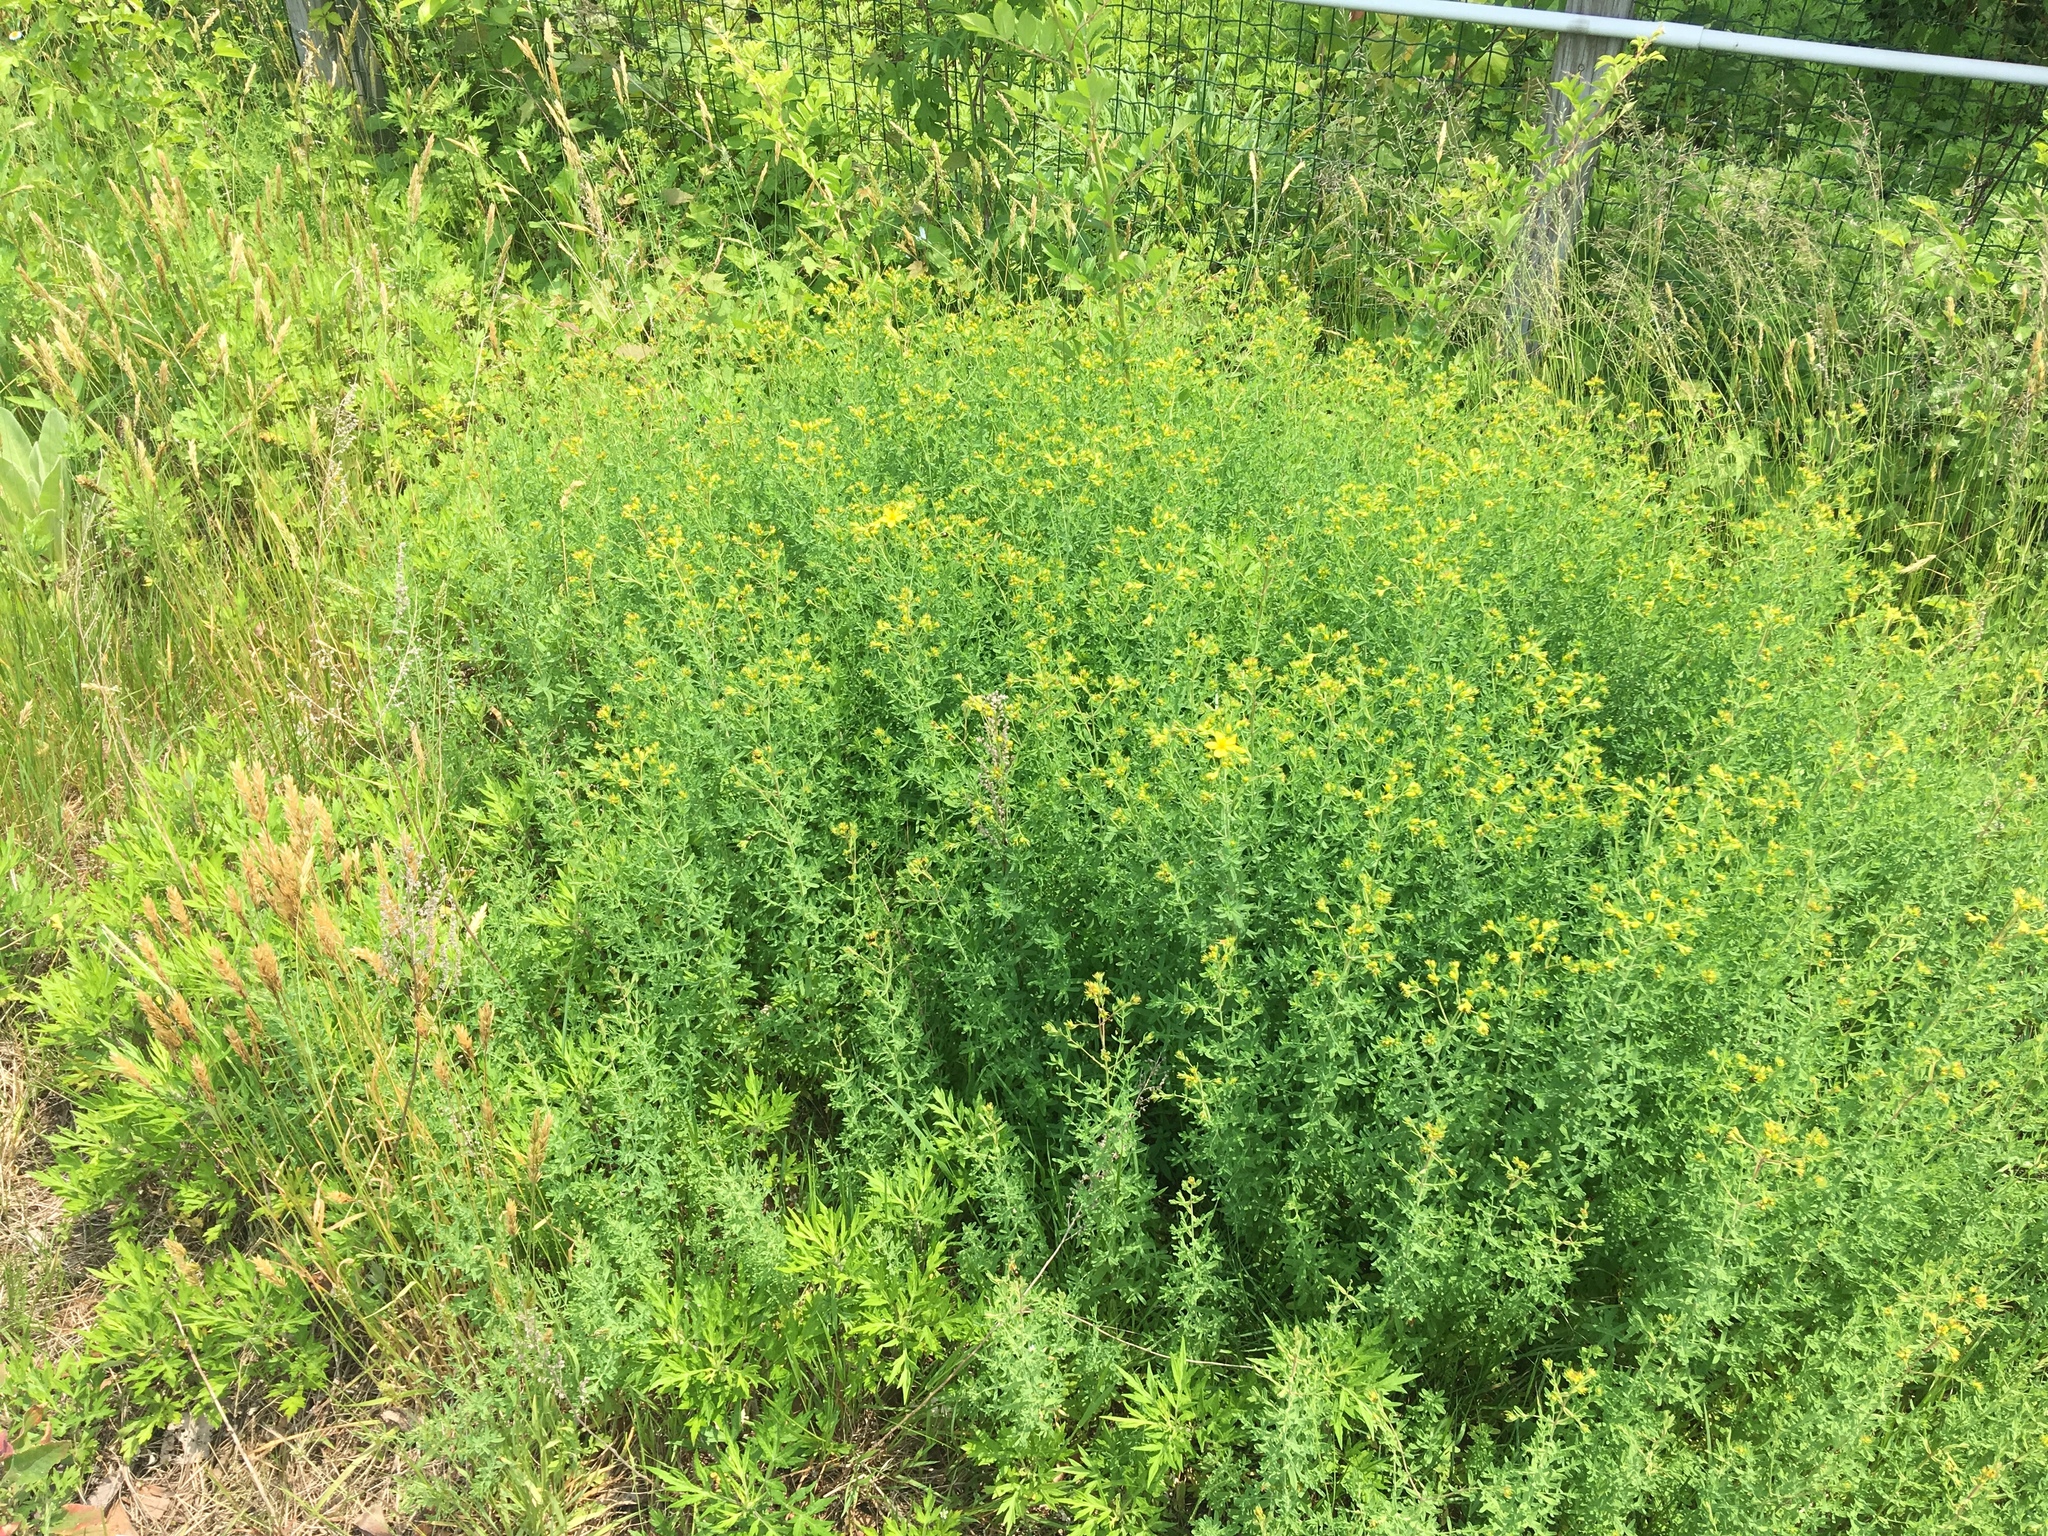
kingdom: Plantae
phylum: Tracheophyta
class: Magnoliopsida
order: Malpighiales
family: Hypericaceae
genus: Hypericum
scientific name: Hypericum perforatum
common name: Common st. johnswort
